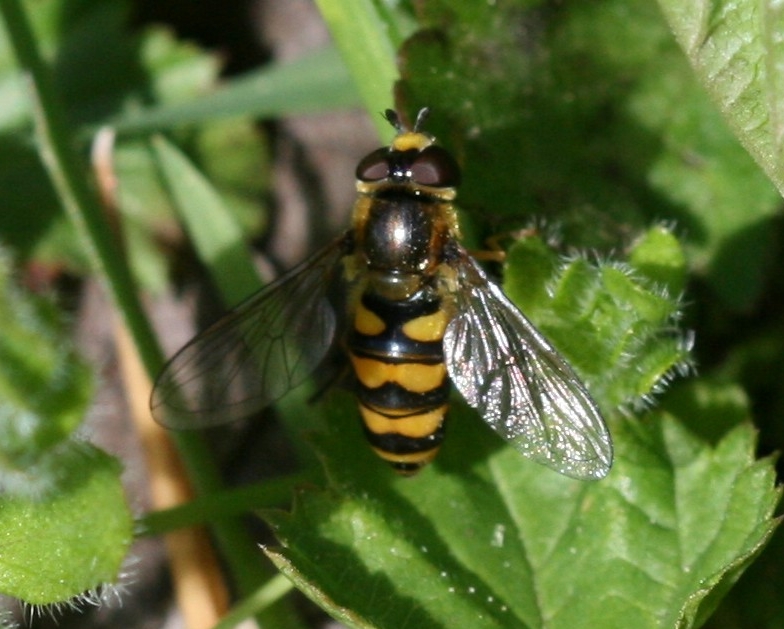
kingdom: Animalia
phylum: Arthropoda
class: Insecta
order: Diptera
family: Syrphidae
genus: Eupeodes
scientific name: Eupeodes latifasciatus
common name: Variable aphideater
